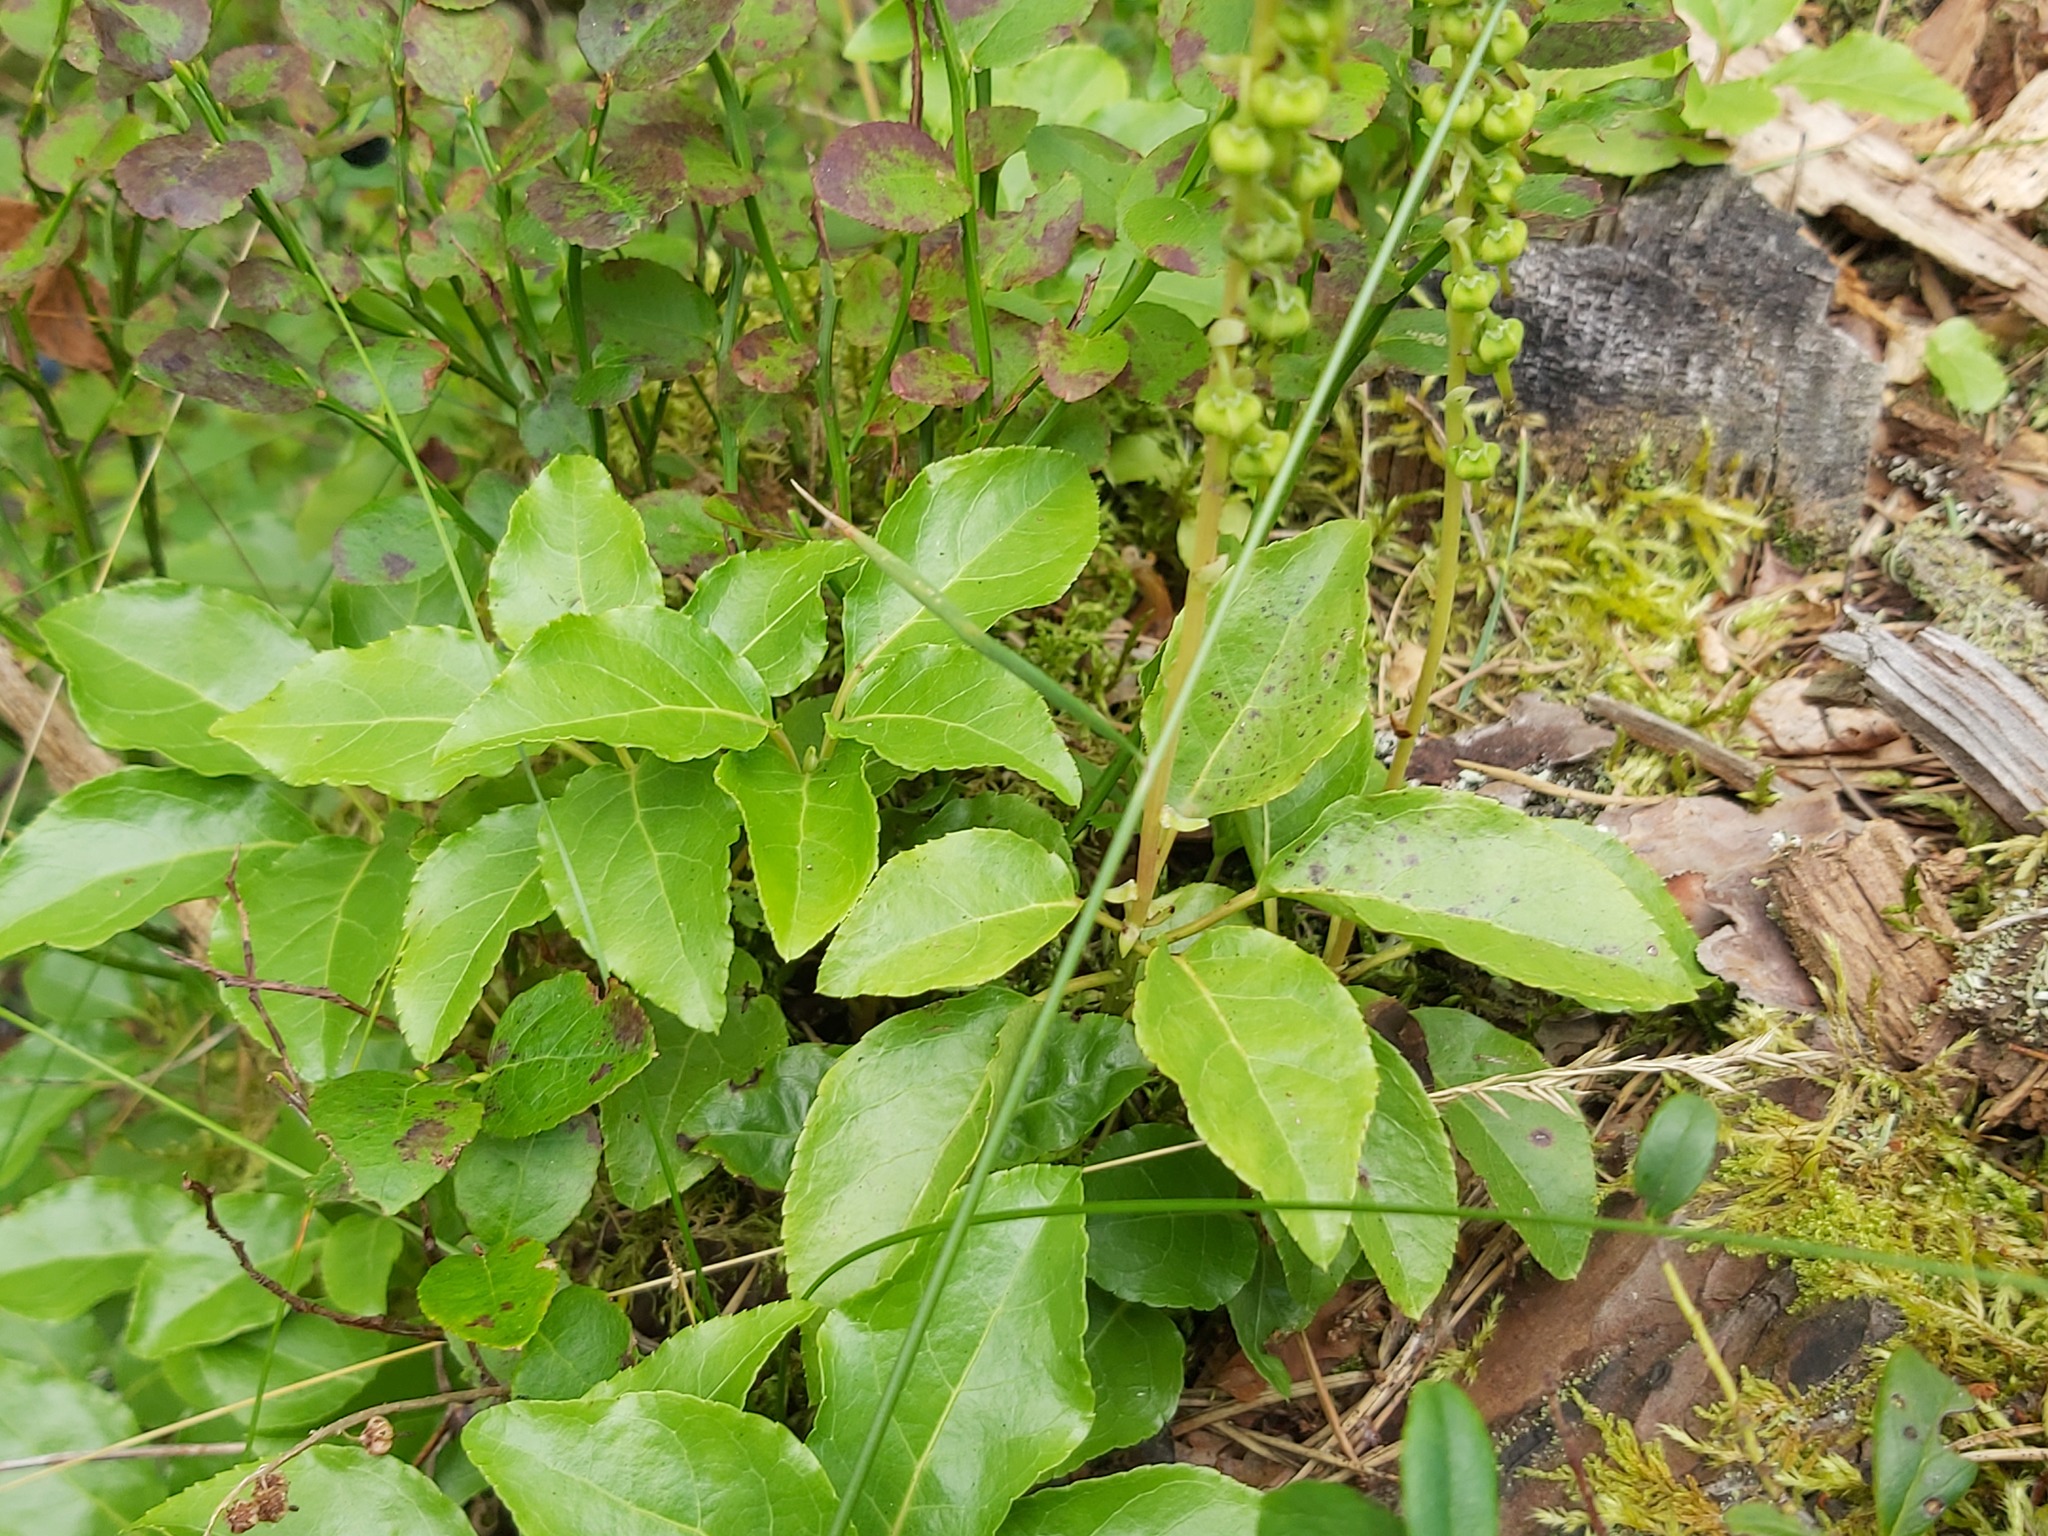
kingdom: Plantae
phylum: Tracheophyta
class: Magnoliopsida
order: Ericales
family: Ericaceae
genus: Orthilia
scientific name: Orthilia secunda
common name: One-sided orthilia
